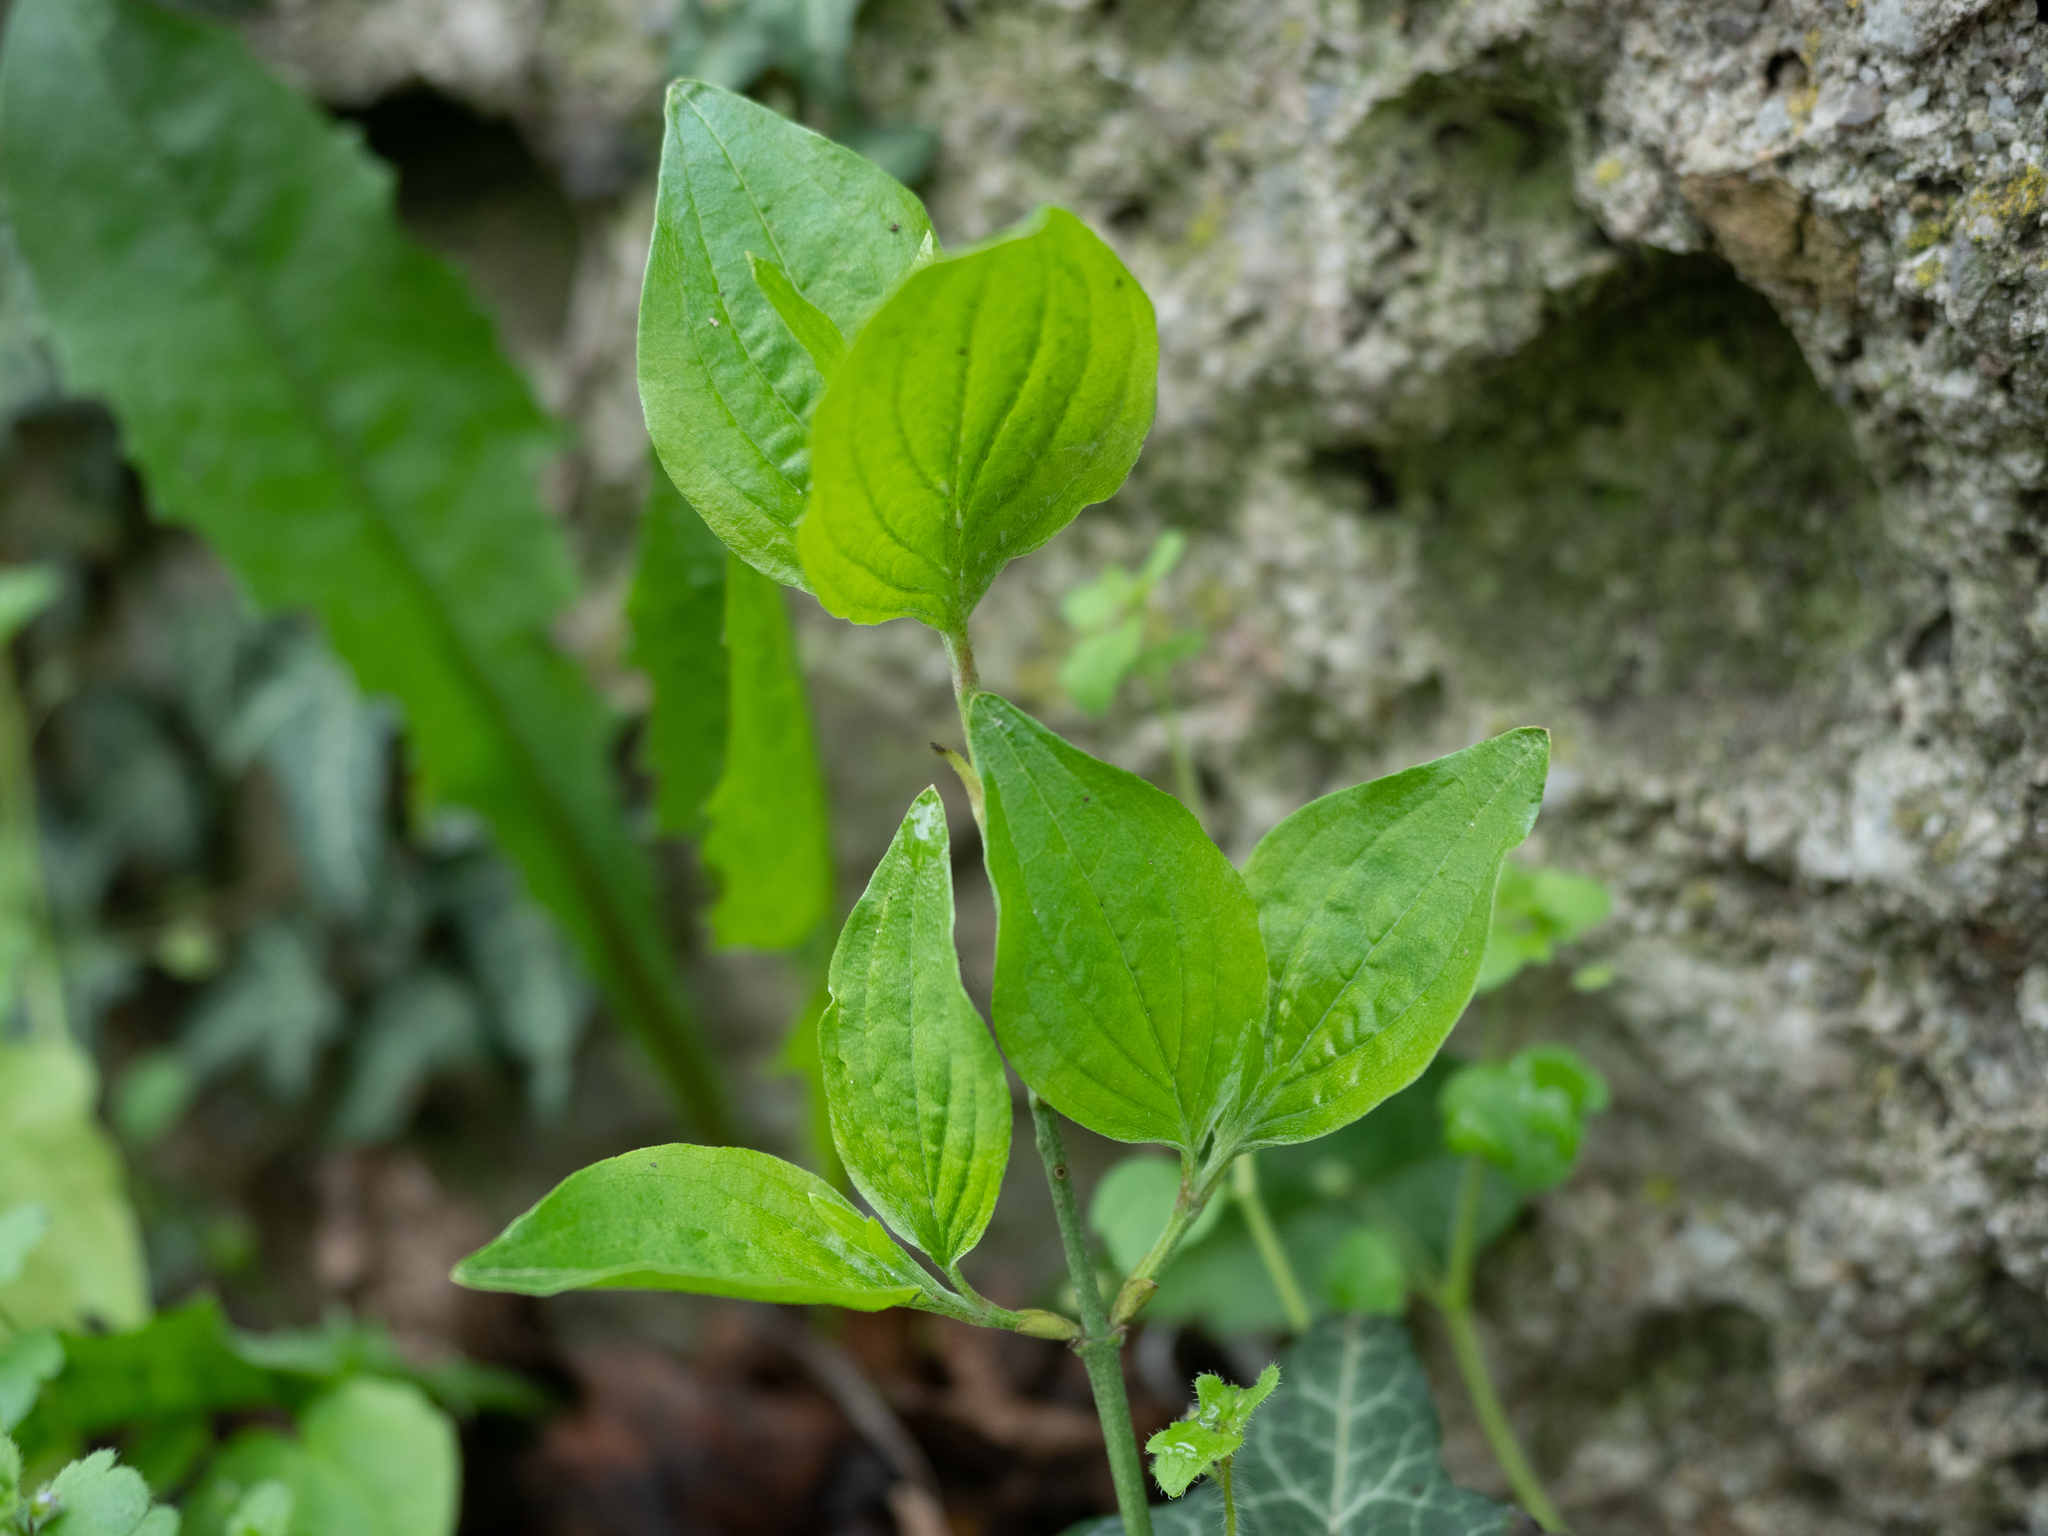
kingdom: Plantae
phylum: Tracheophyta
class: Magnoliopsida
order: Cornales
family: Cornaceae
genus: Cornus
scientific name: Cornus sanguinea
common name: Dogwood
